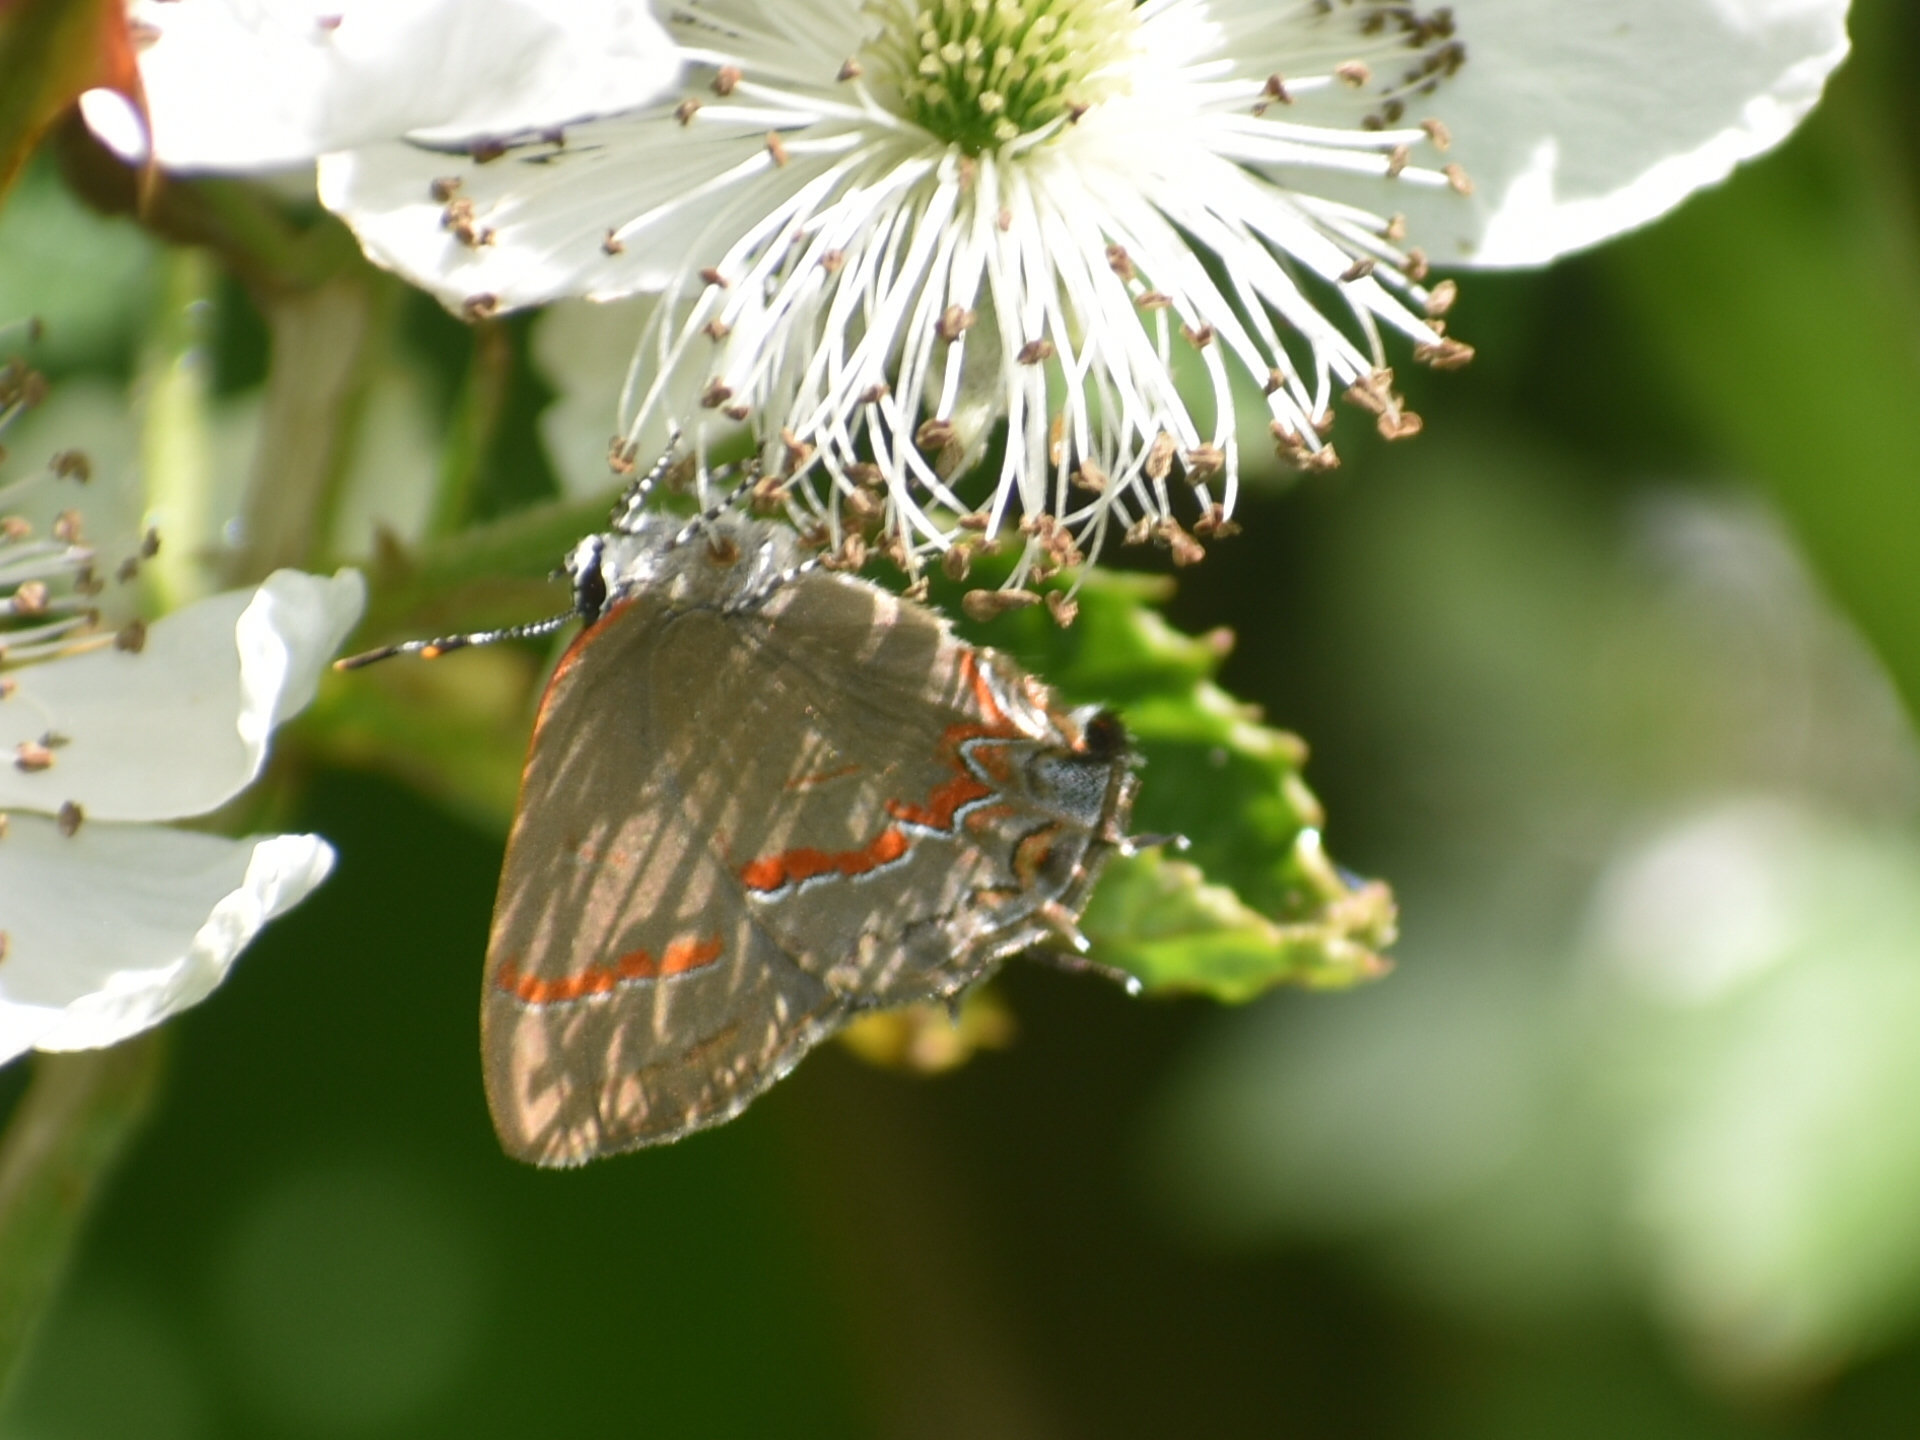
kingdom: Animalia
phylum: Arthropoda
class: Insecta
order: Lepidoptera
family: Lycaenidae
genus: Calycopis
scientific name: Calycopis cecrops
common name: Red-banded hairstreak
